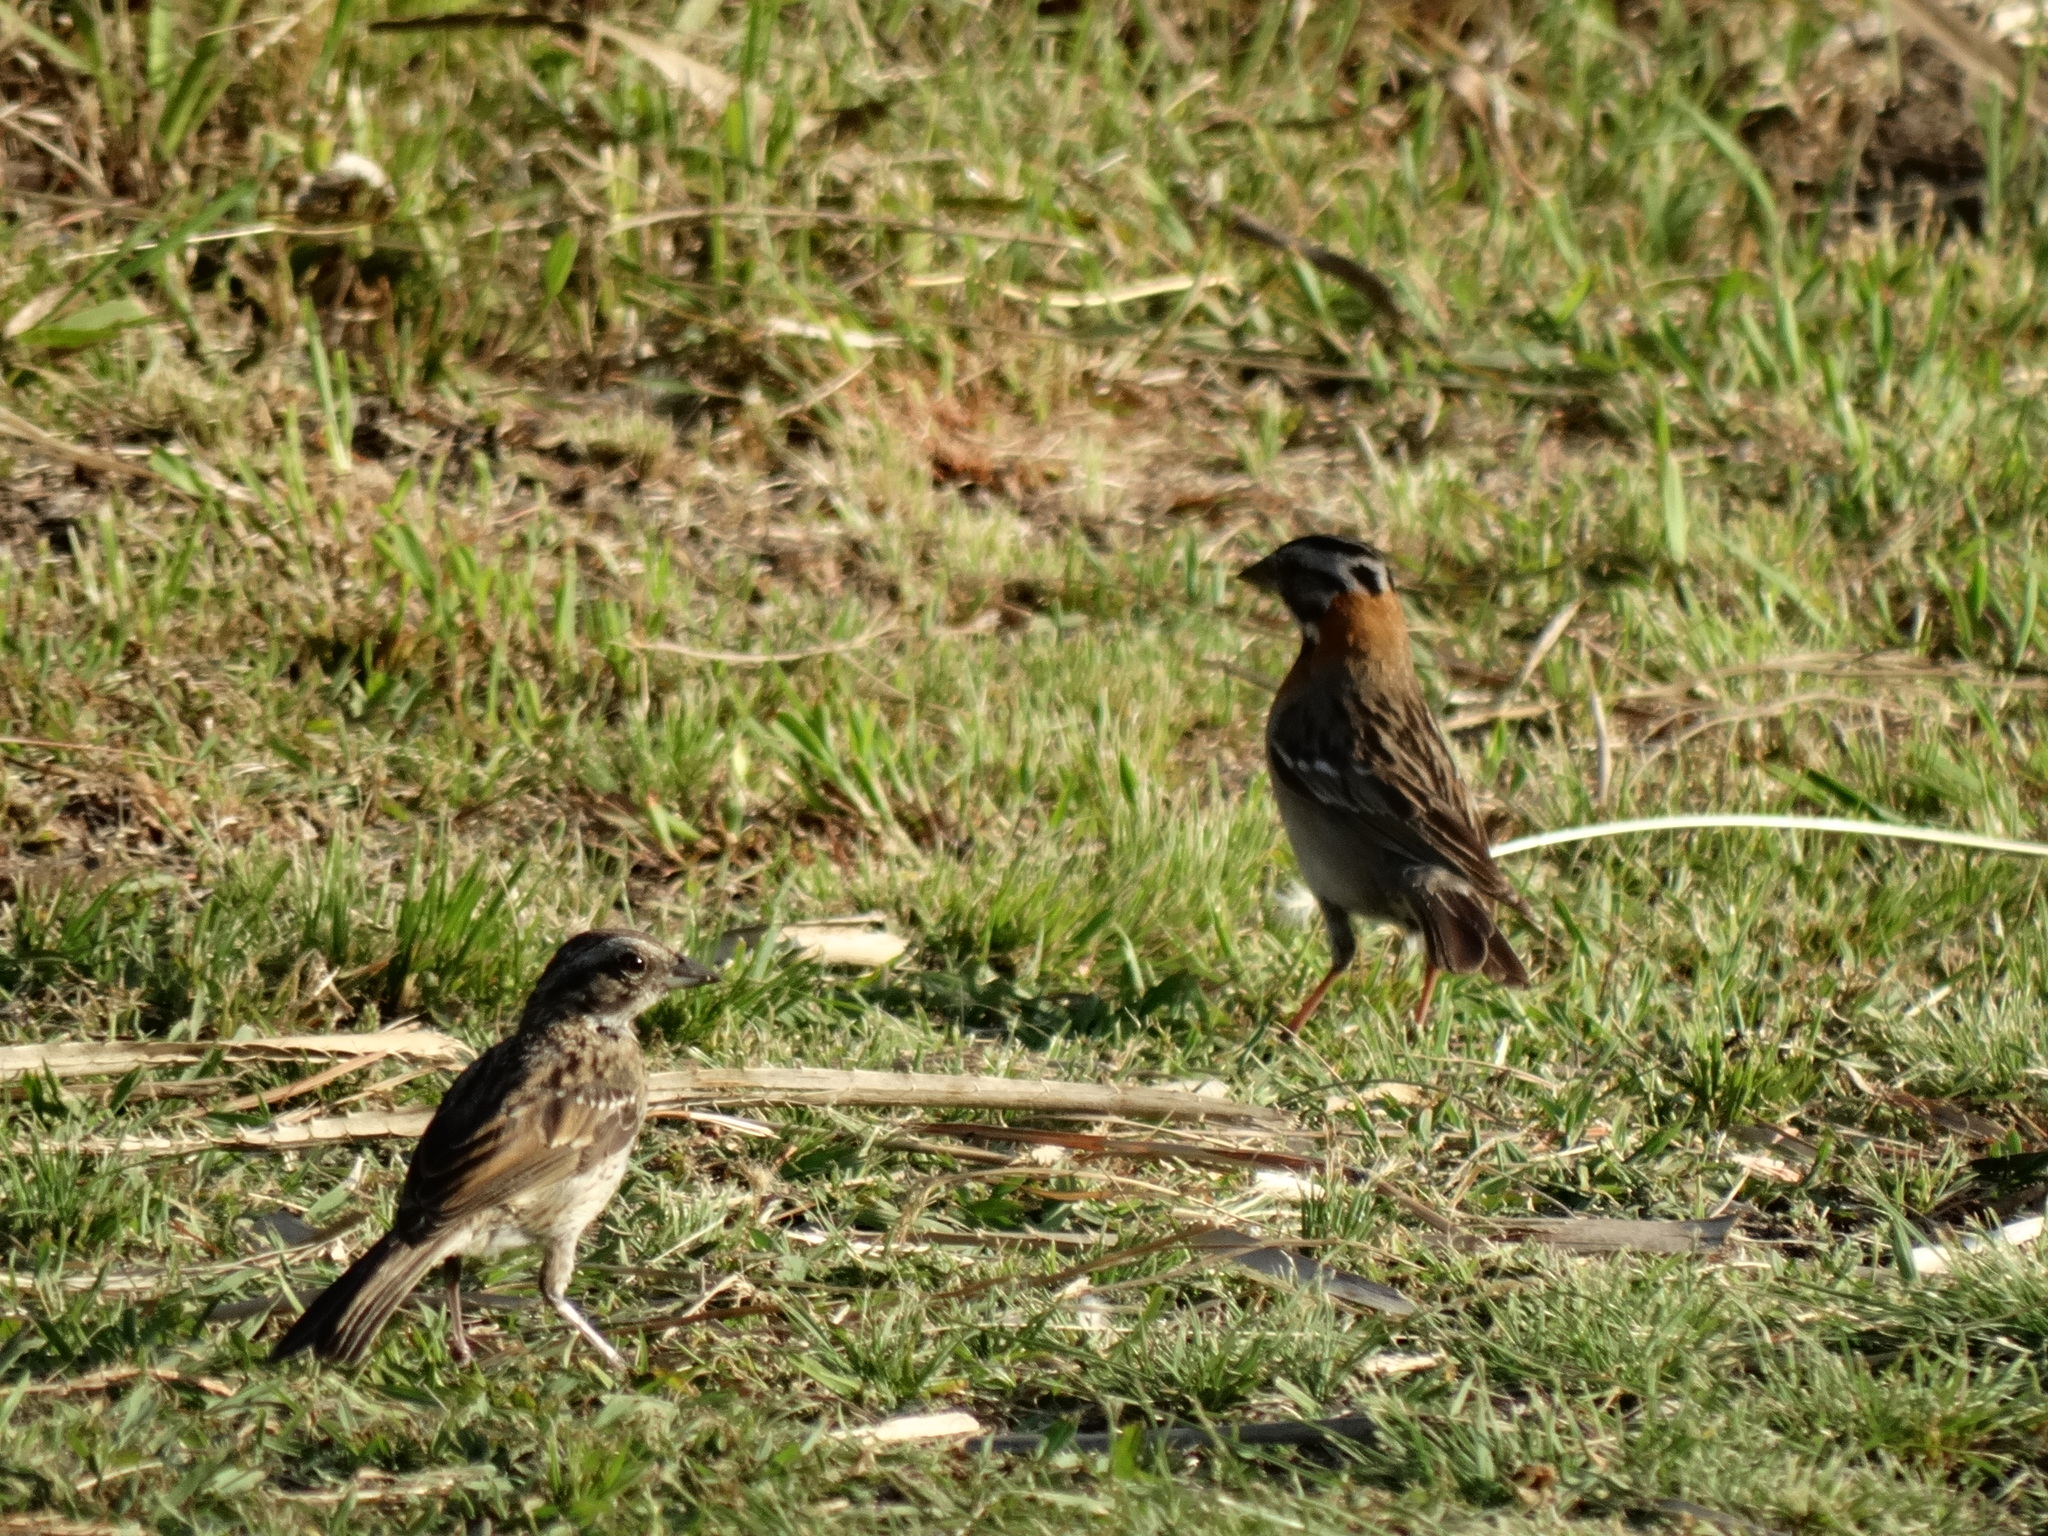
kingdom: Animalia
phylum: Chordata
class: Aves
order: Passeriformes
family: Passerellidae
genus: Zonotrichia
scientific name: Zonotrichia capensis
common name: Rufous-collared sparrow
